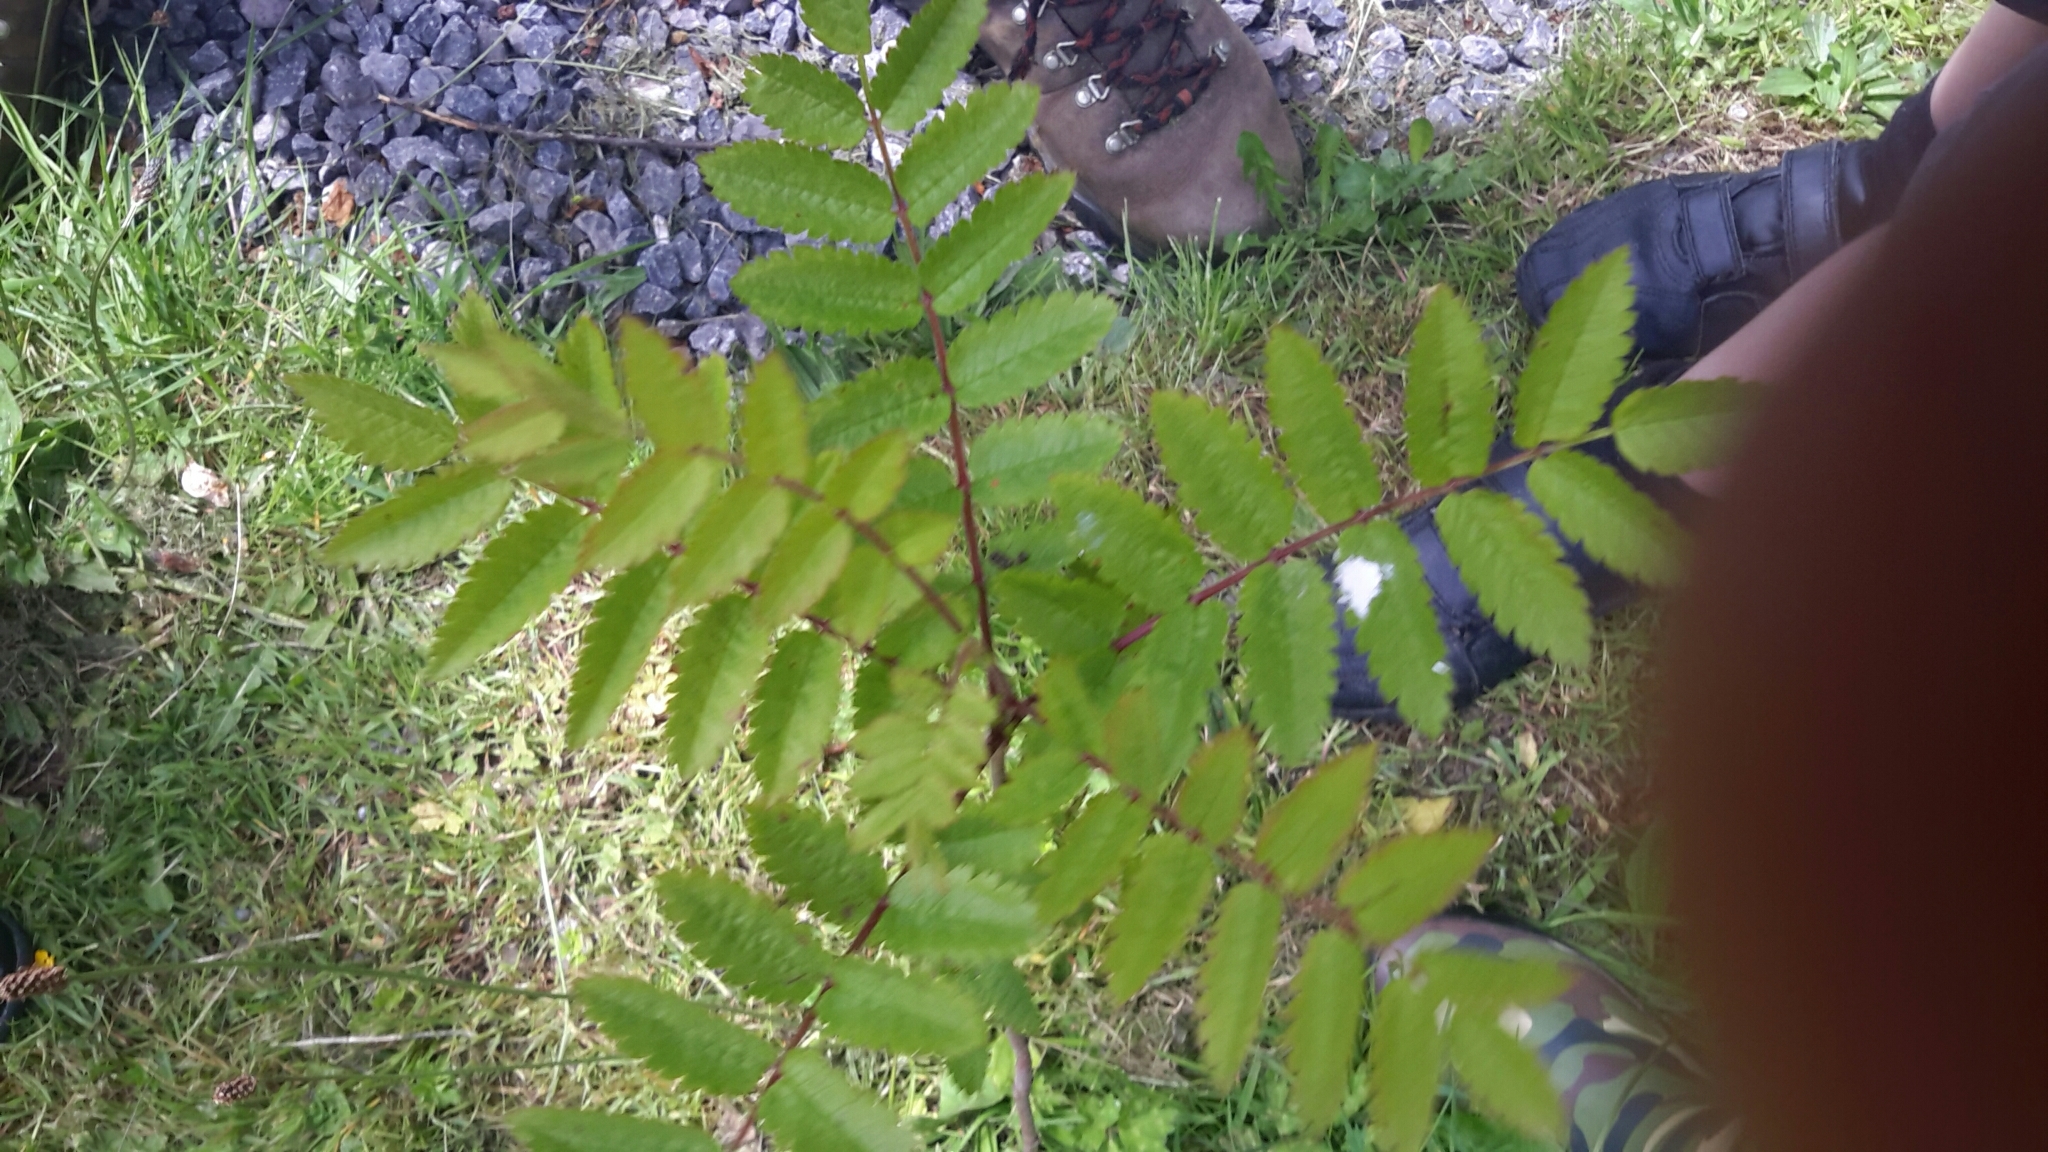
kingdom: Plantae
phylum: Tracheophyta
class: Magnoliopsida
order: Rosales
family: Rosaceae
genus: Sorbus
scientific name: Sorbus aucuparia
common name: Rowan
